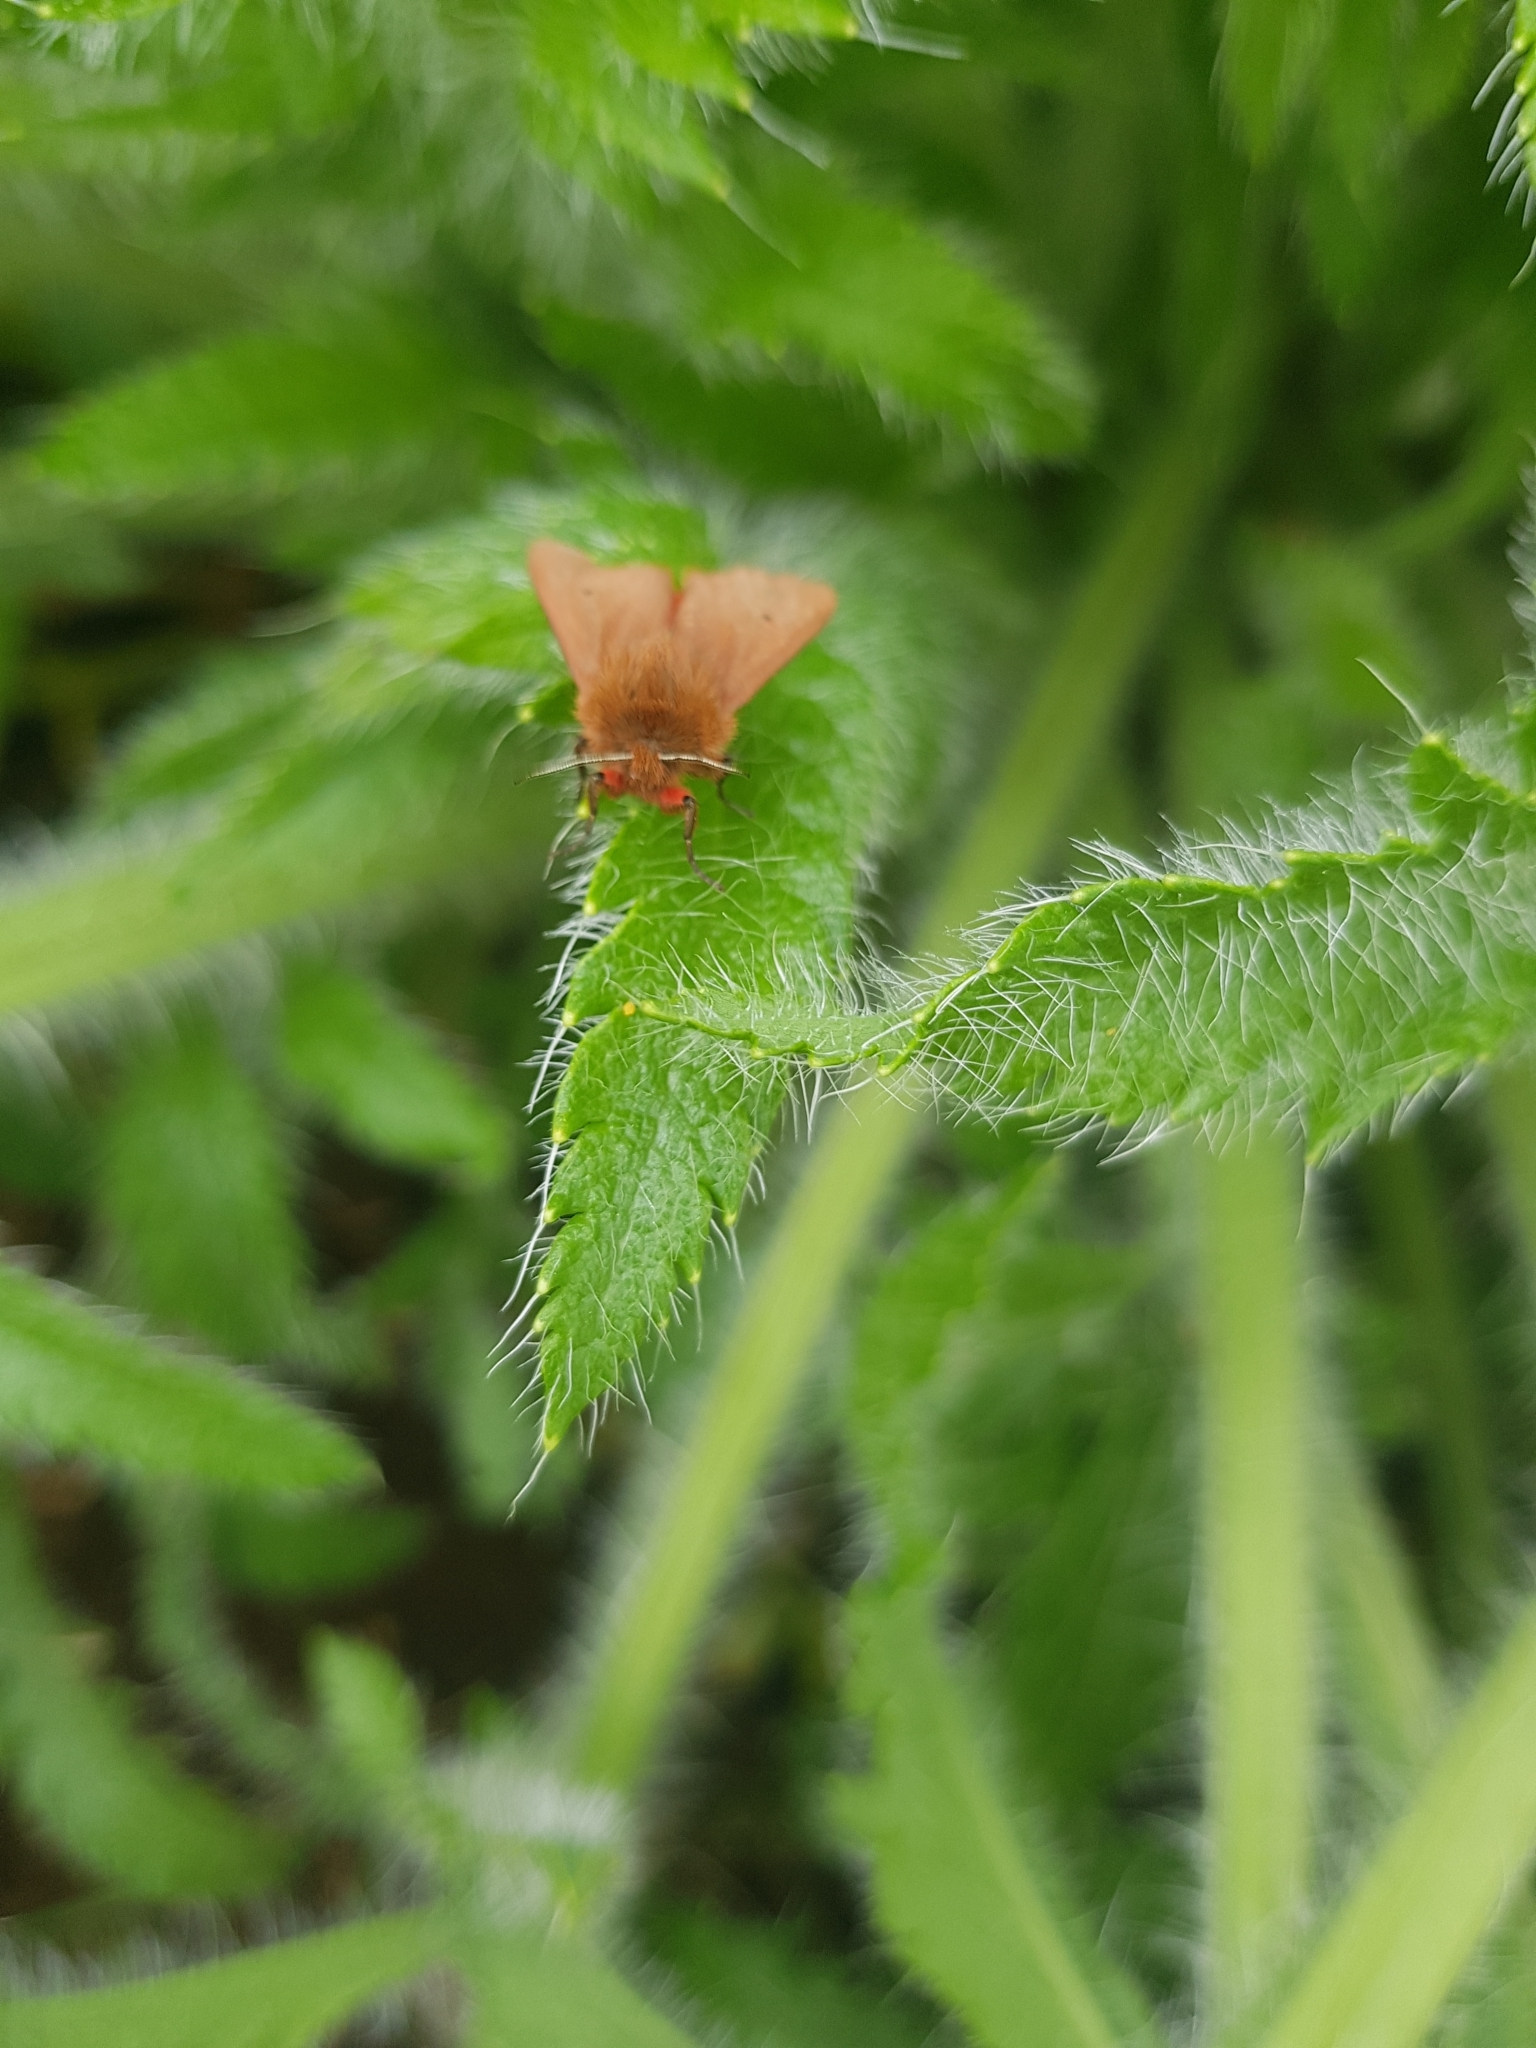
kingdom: Animalia
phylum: Arthropoda
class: Insecta
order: Lepidoptera
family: Erebidae
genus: Phragmatobia
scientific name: Phragmatobia fuliginosa
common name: Ruby tiger
